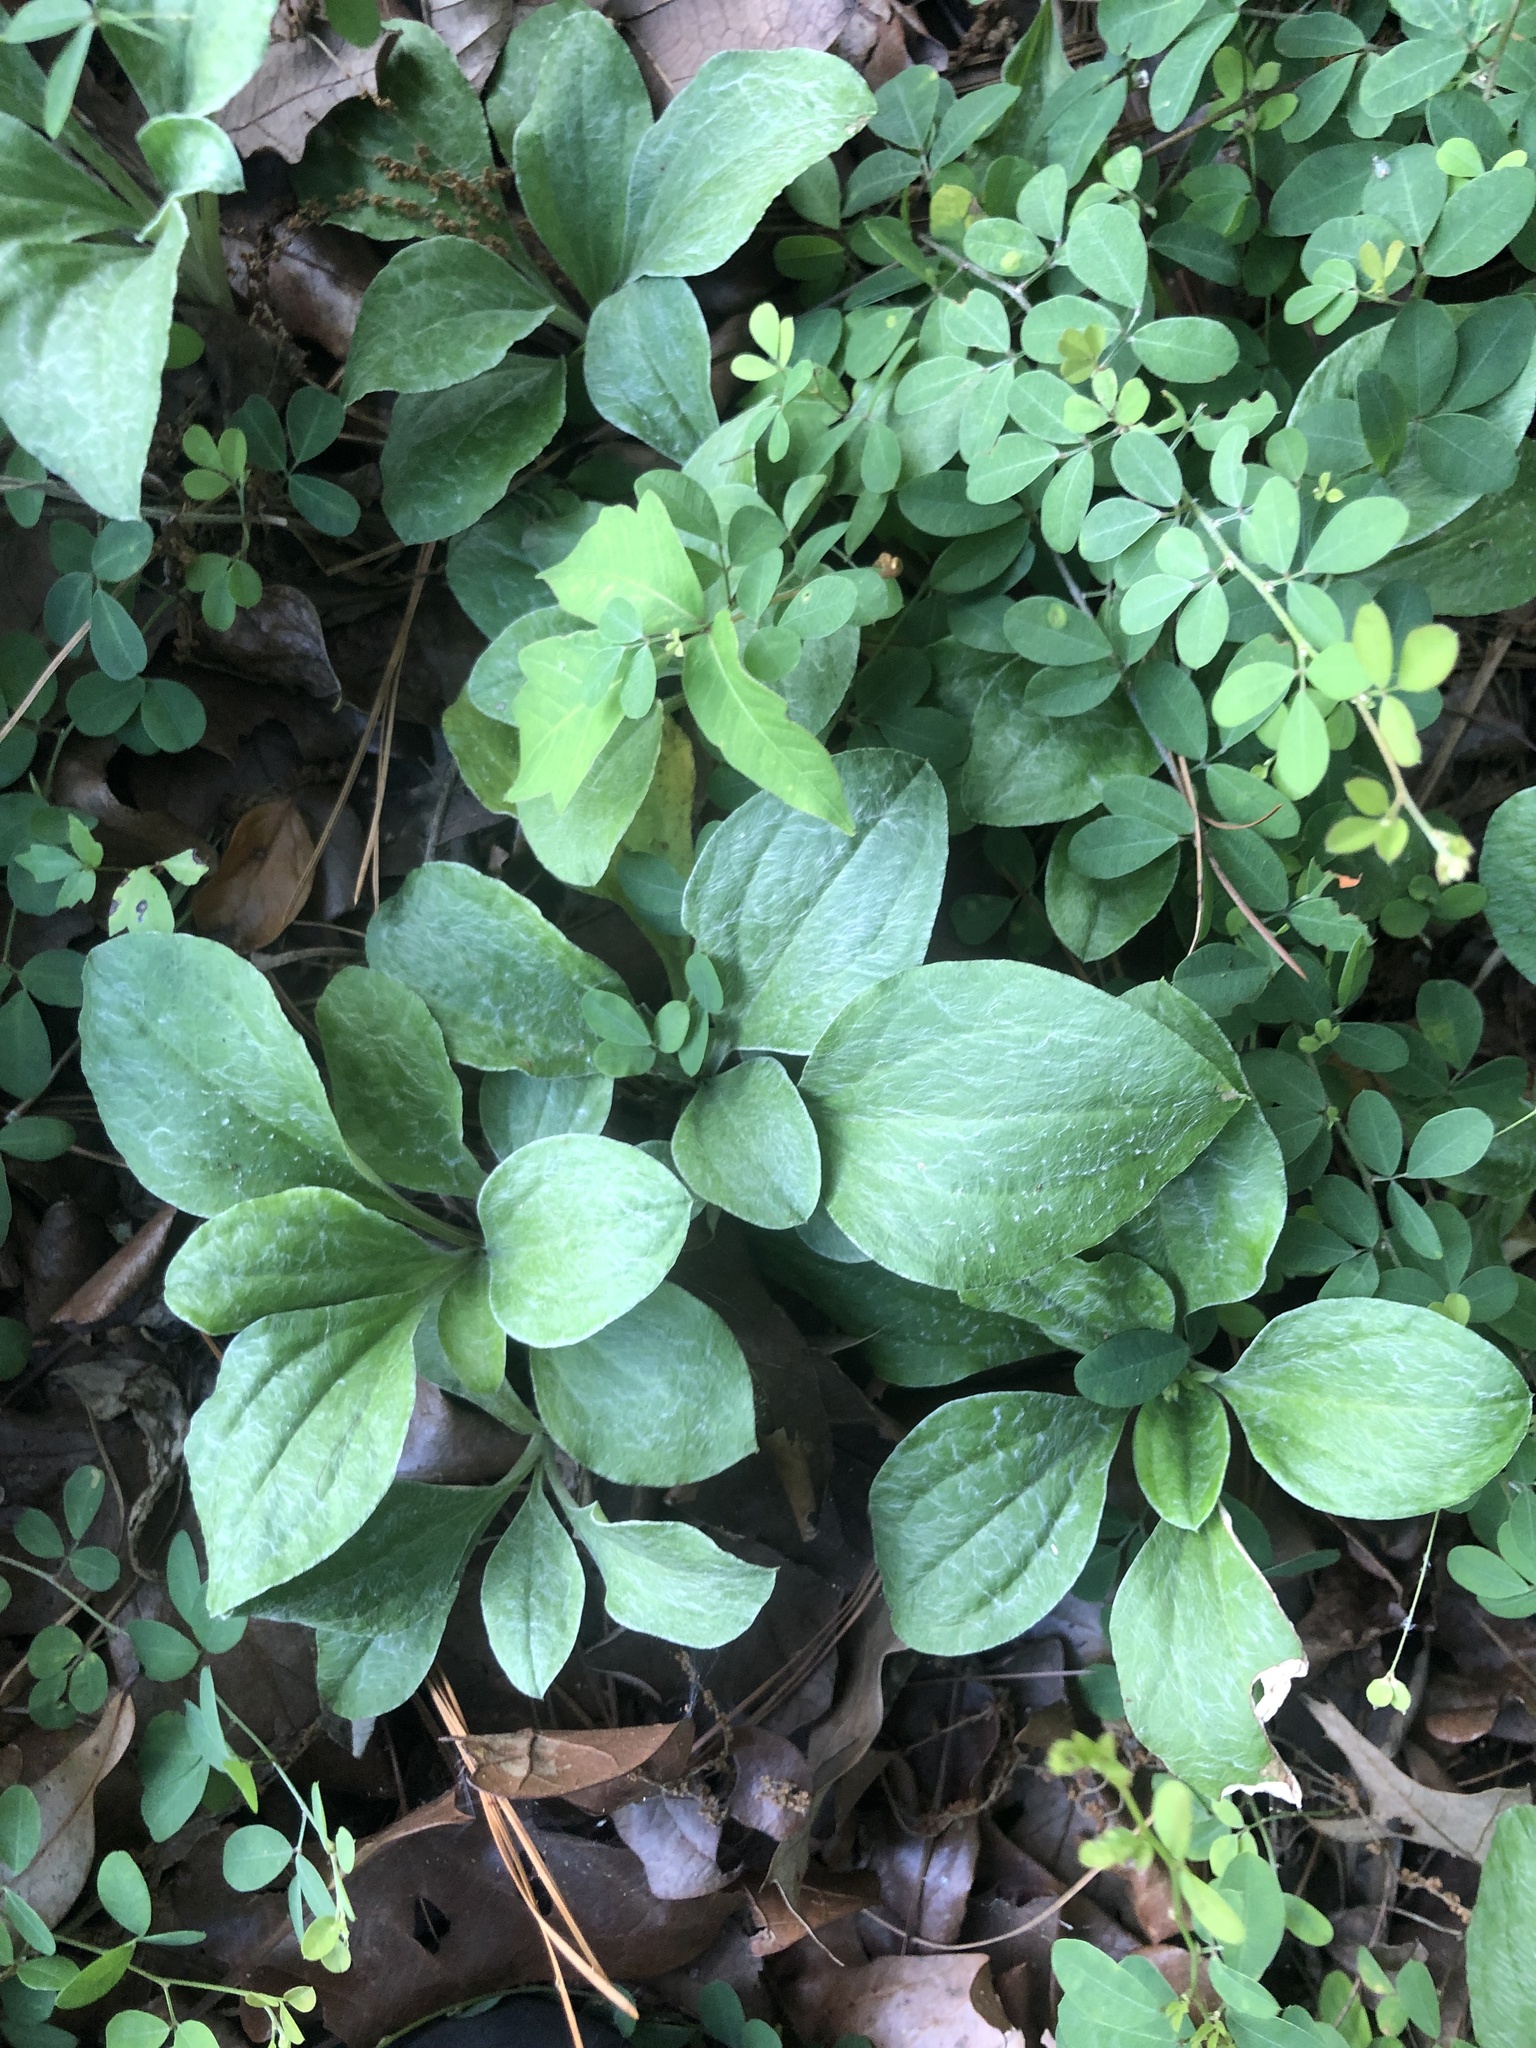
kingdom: Plantae
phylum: Tracheophyta
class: Magnoliopsida
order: Asterales
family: Asteraceae
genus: Antennaria
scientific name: Antennaria plantaginifolia
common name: Plantain-leaved pussytoes
